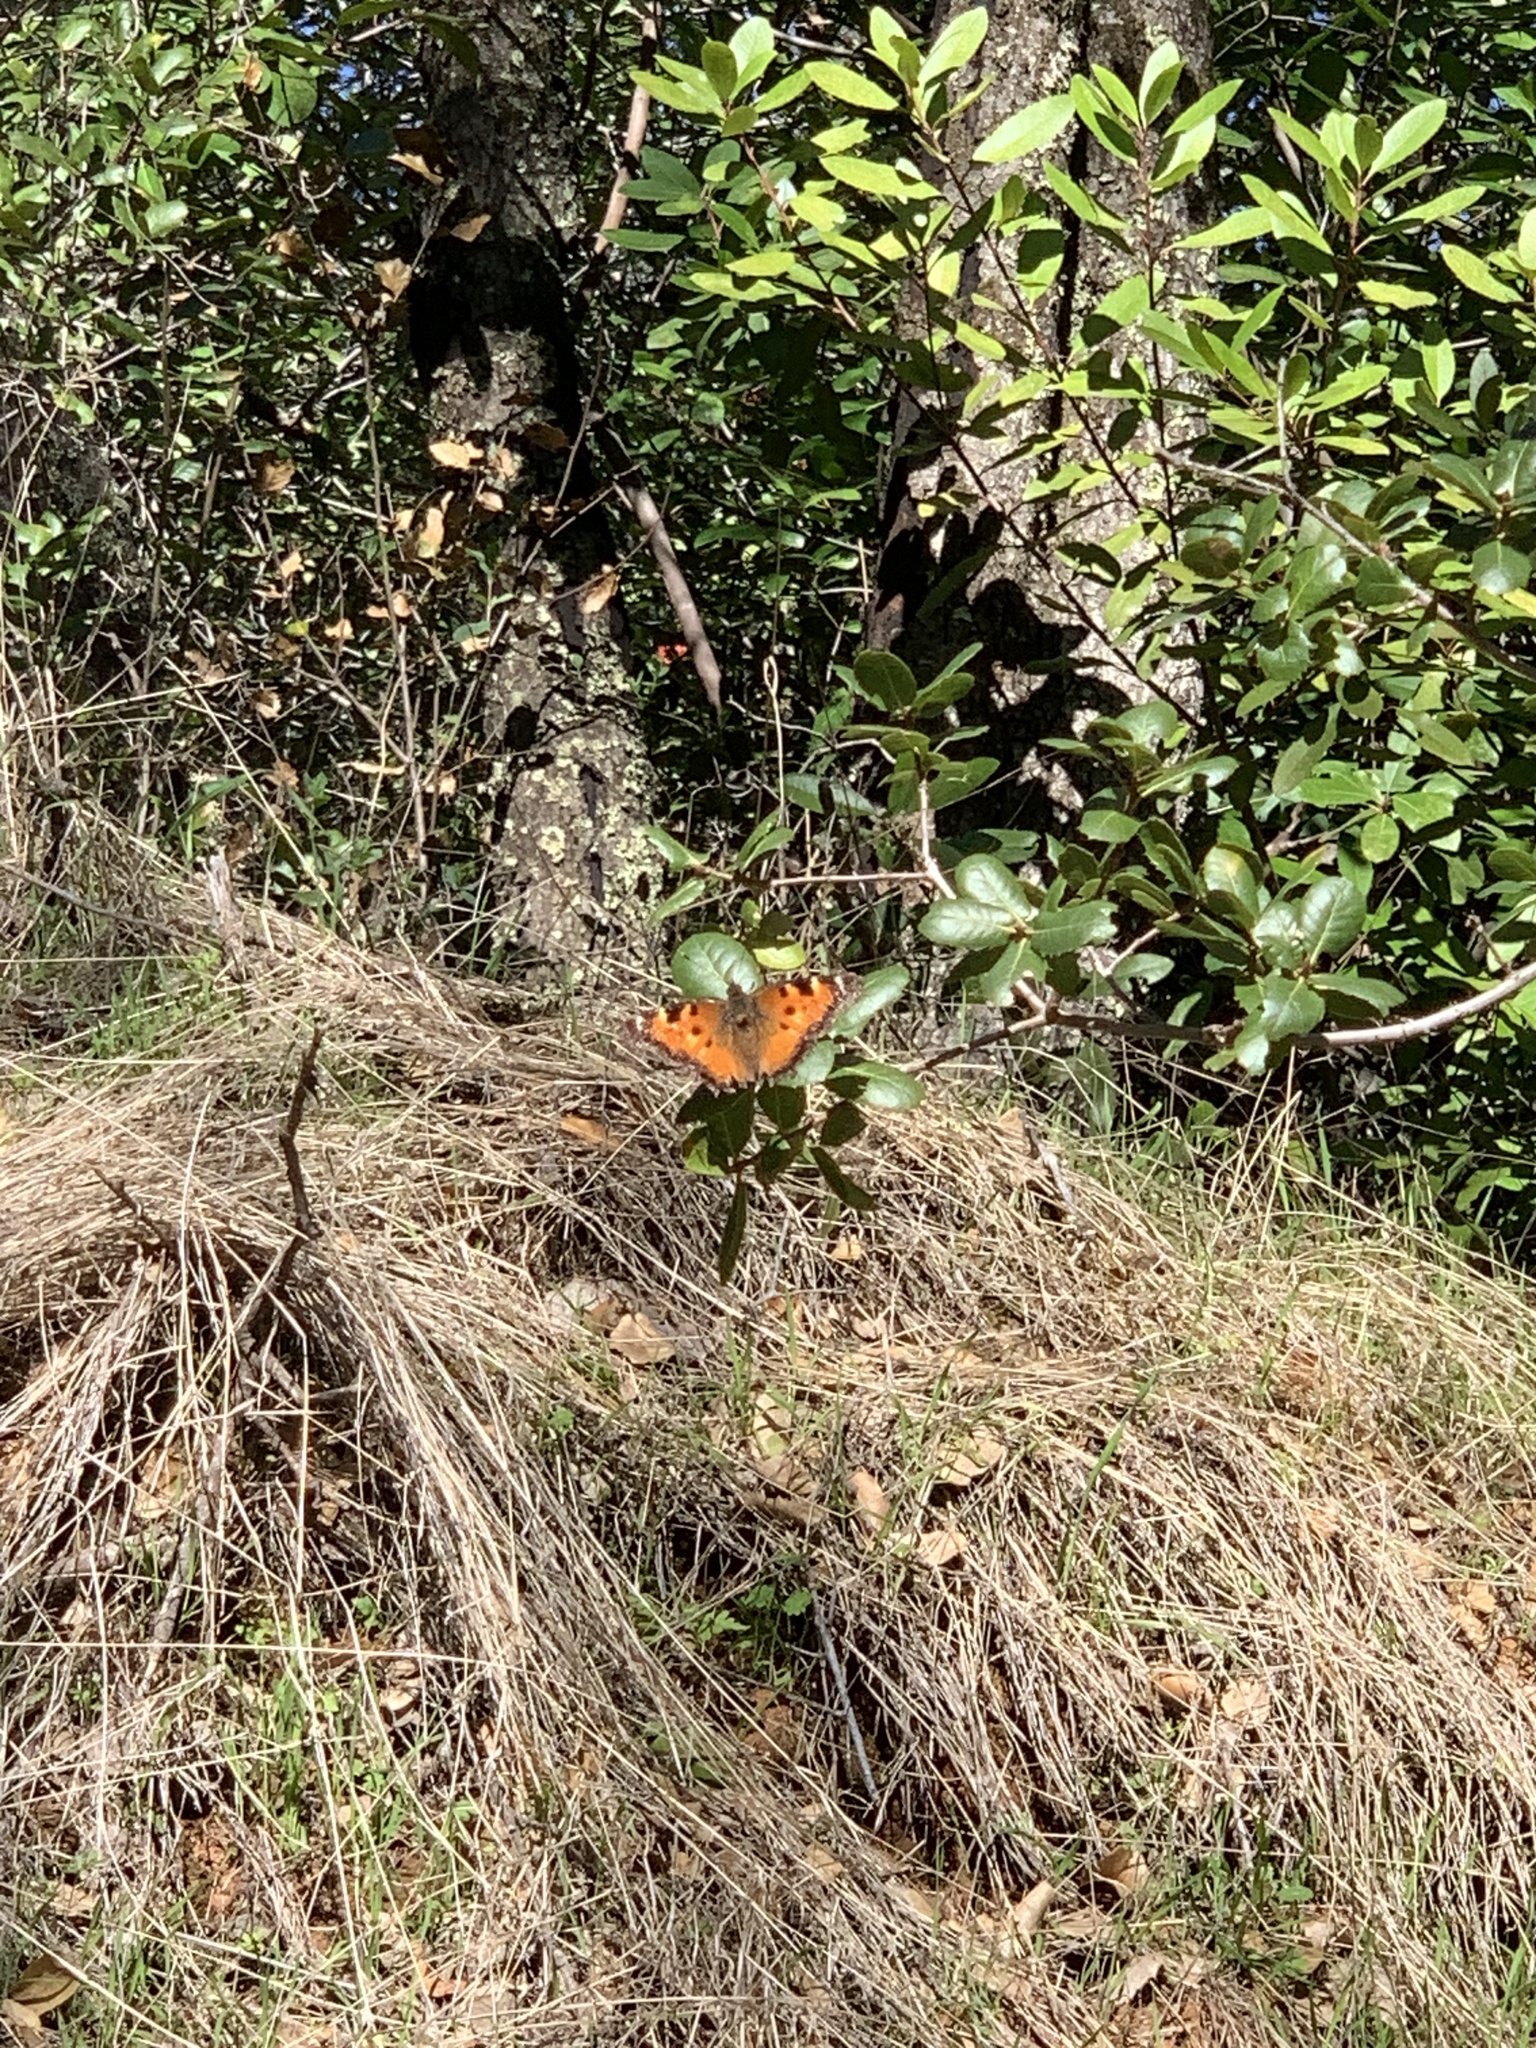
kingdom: Animalia
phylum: Arthropoda
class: Insecta
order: Lepidoptera
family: Nymphalidae
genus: Nymphalis
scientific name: Nymphalis californica
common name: California tortoiseshell
